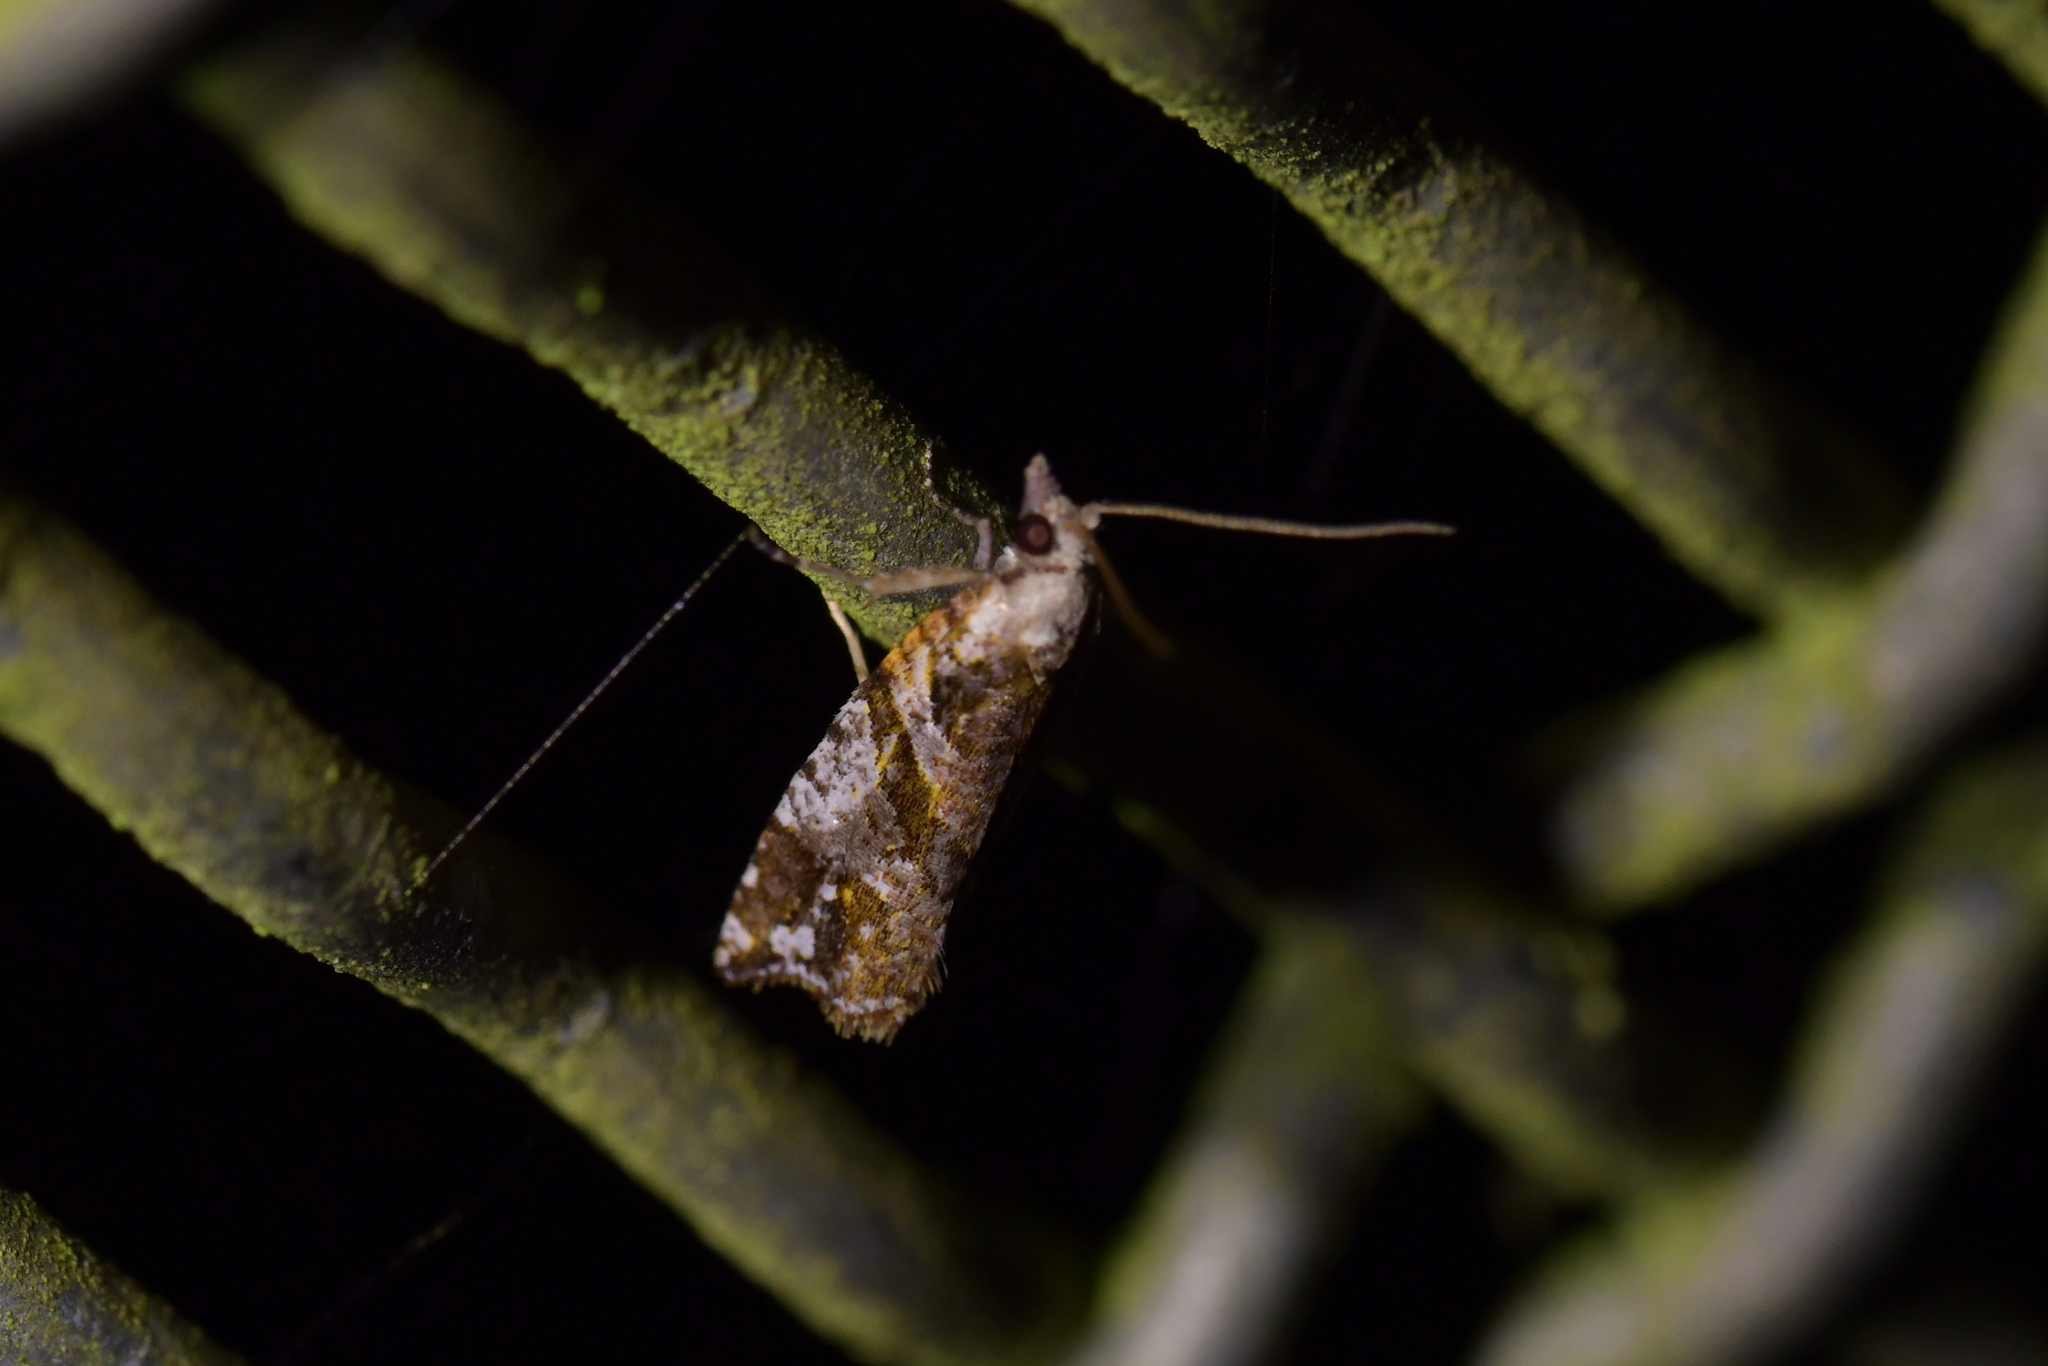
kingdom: Animalia
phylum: Arthropoda
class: Insecta
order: Lepidoptera
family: Tortricidae
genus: Pyrgotis
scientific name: Pyrgotis plagiatana
